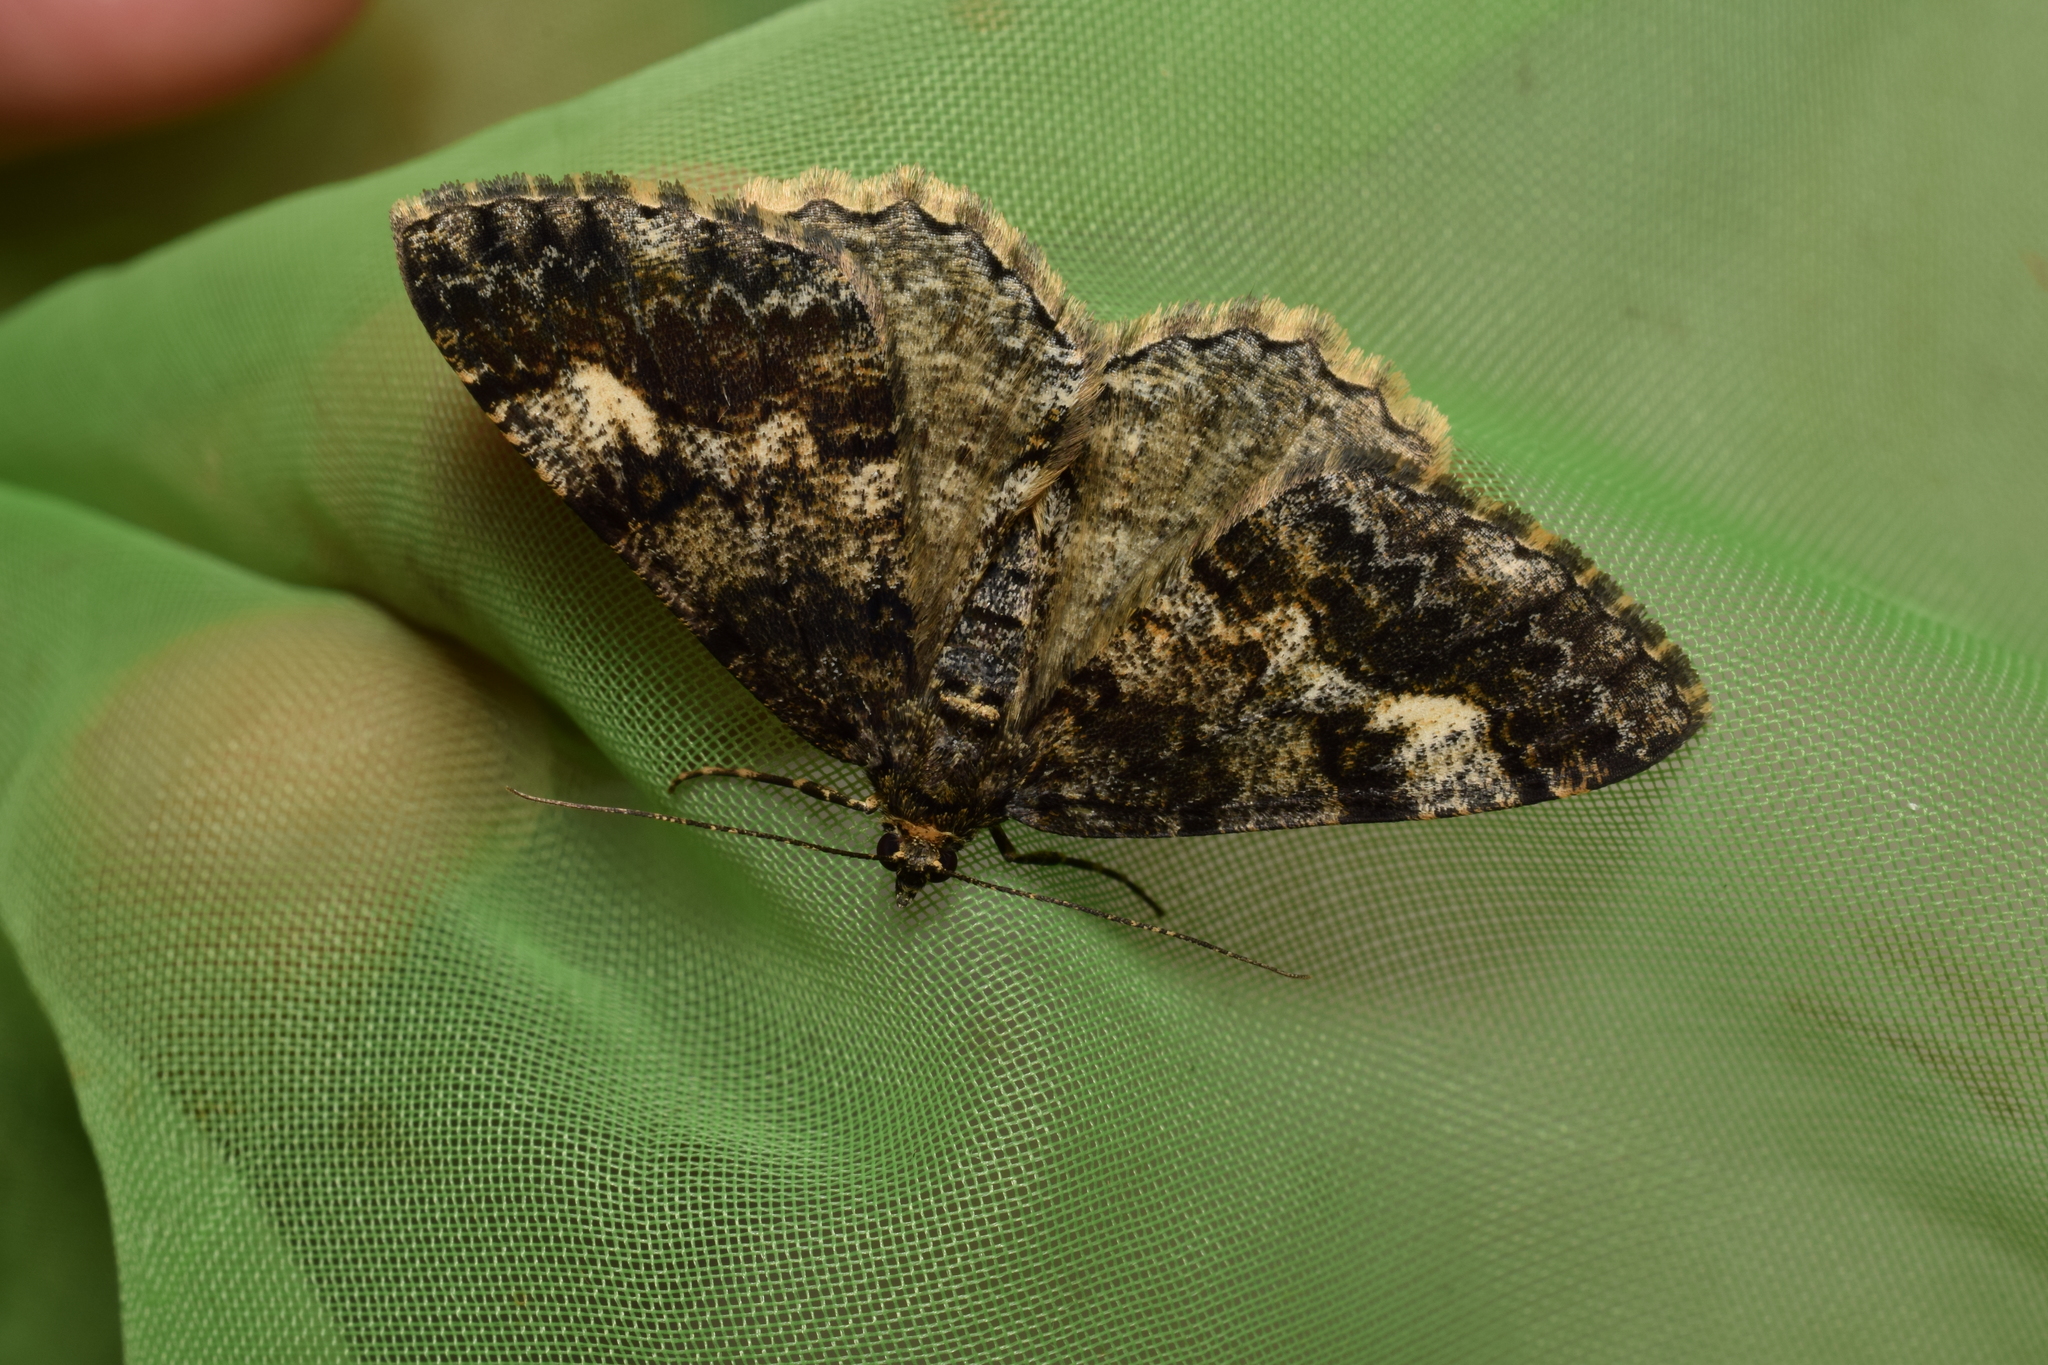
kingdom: Animalia
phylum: Arthropoda
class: Insecta
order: Lepidoptera
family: Geometridae
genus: Alcis
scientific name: Alcis angulifera
